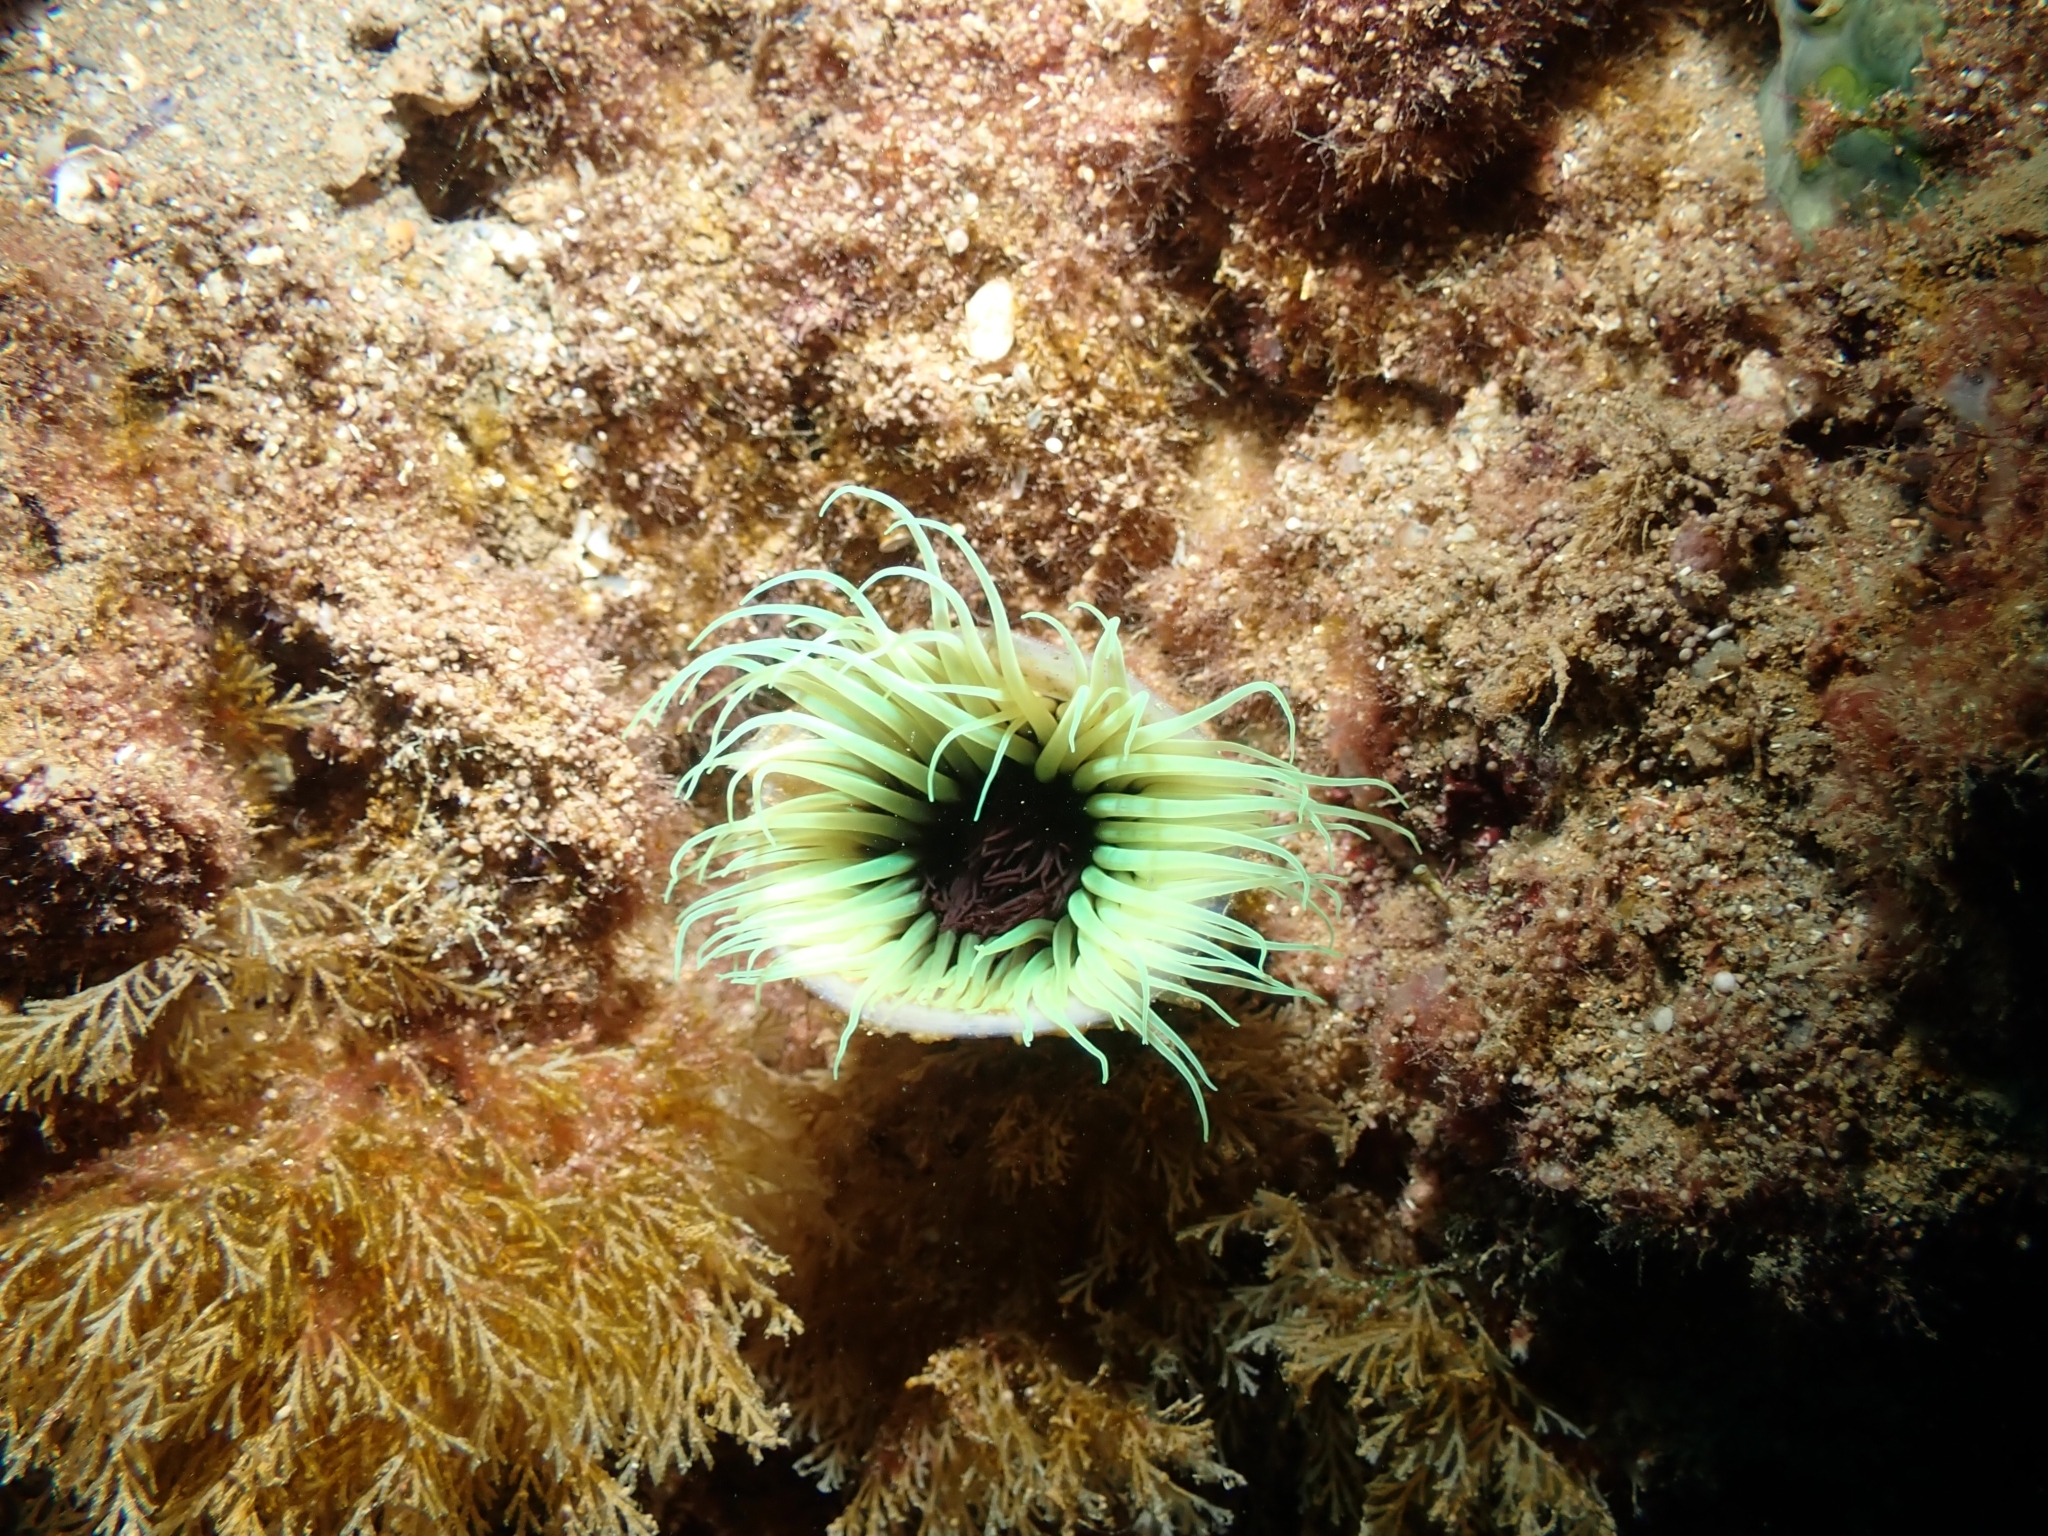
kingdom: Animalia
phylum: Cnidaria
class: Anthozoa
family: Cerianthidae
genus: Cerianthus
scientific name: Cerianthus membranaceus
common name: Cylinder anemone
